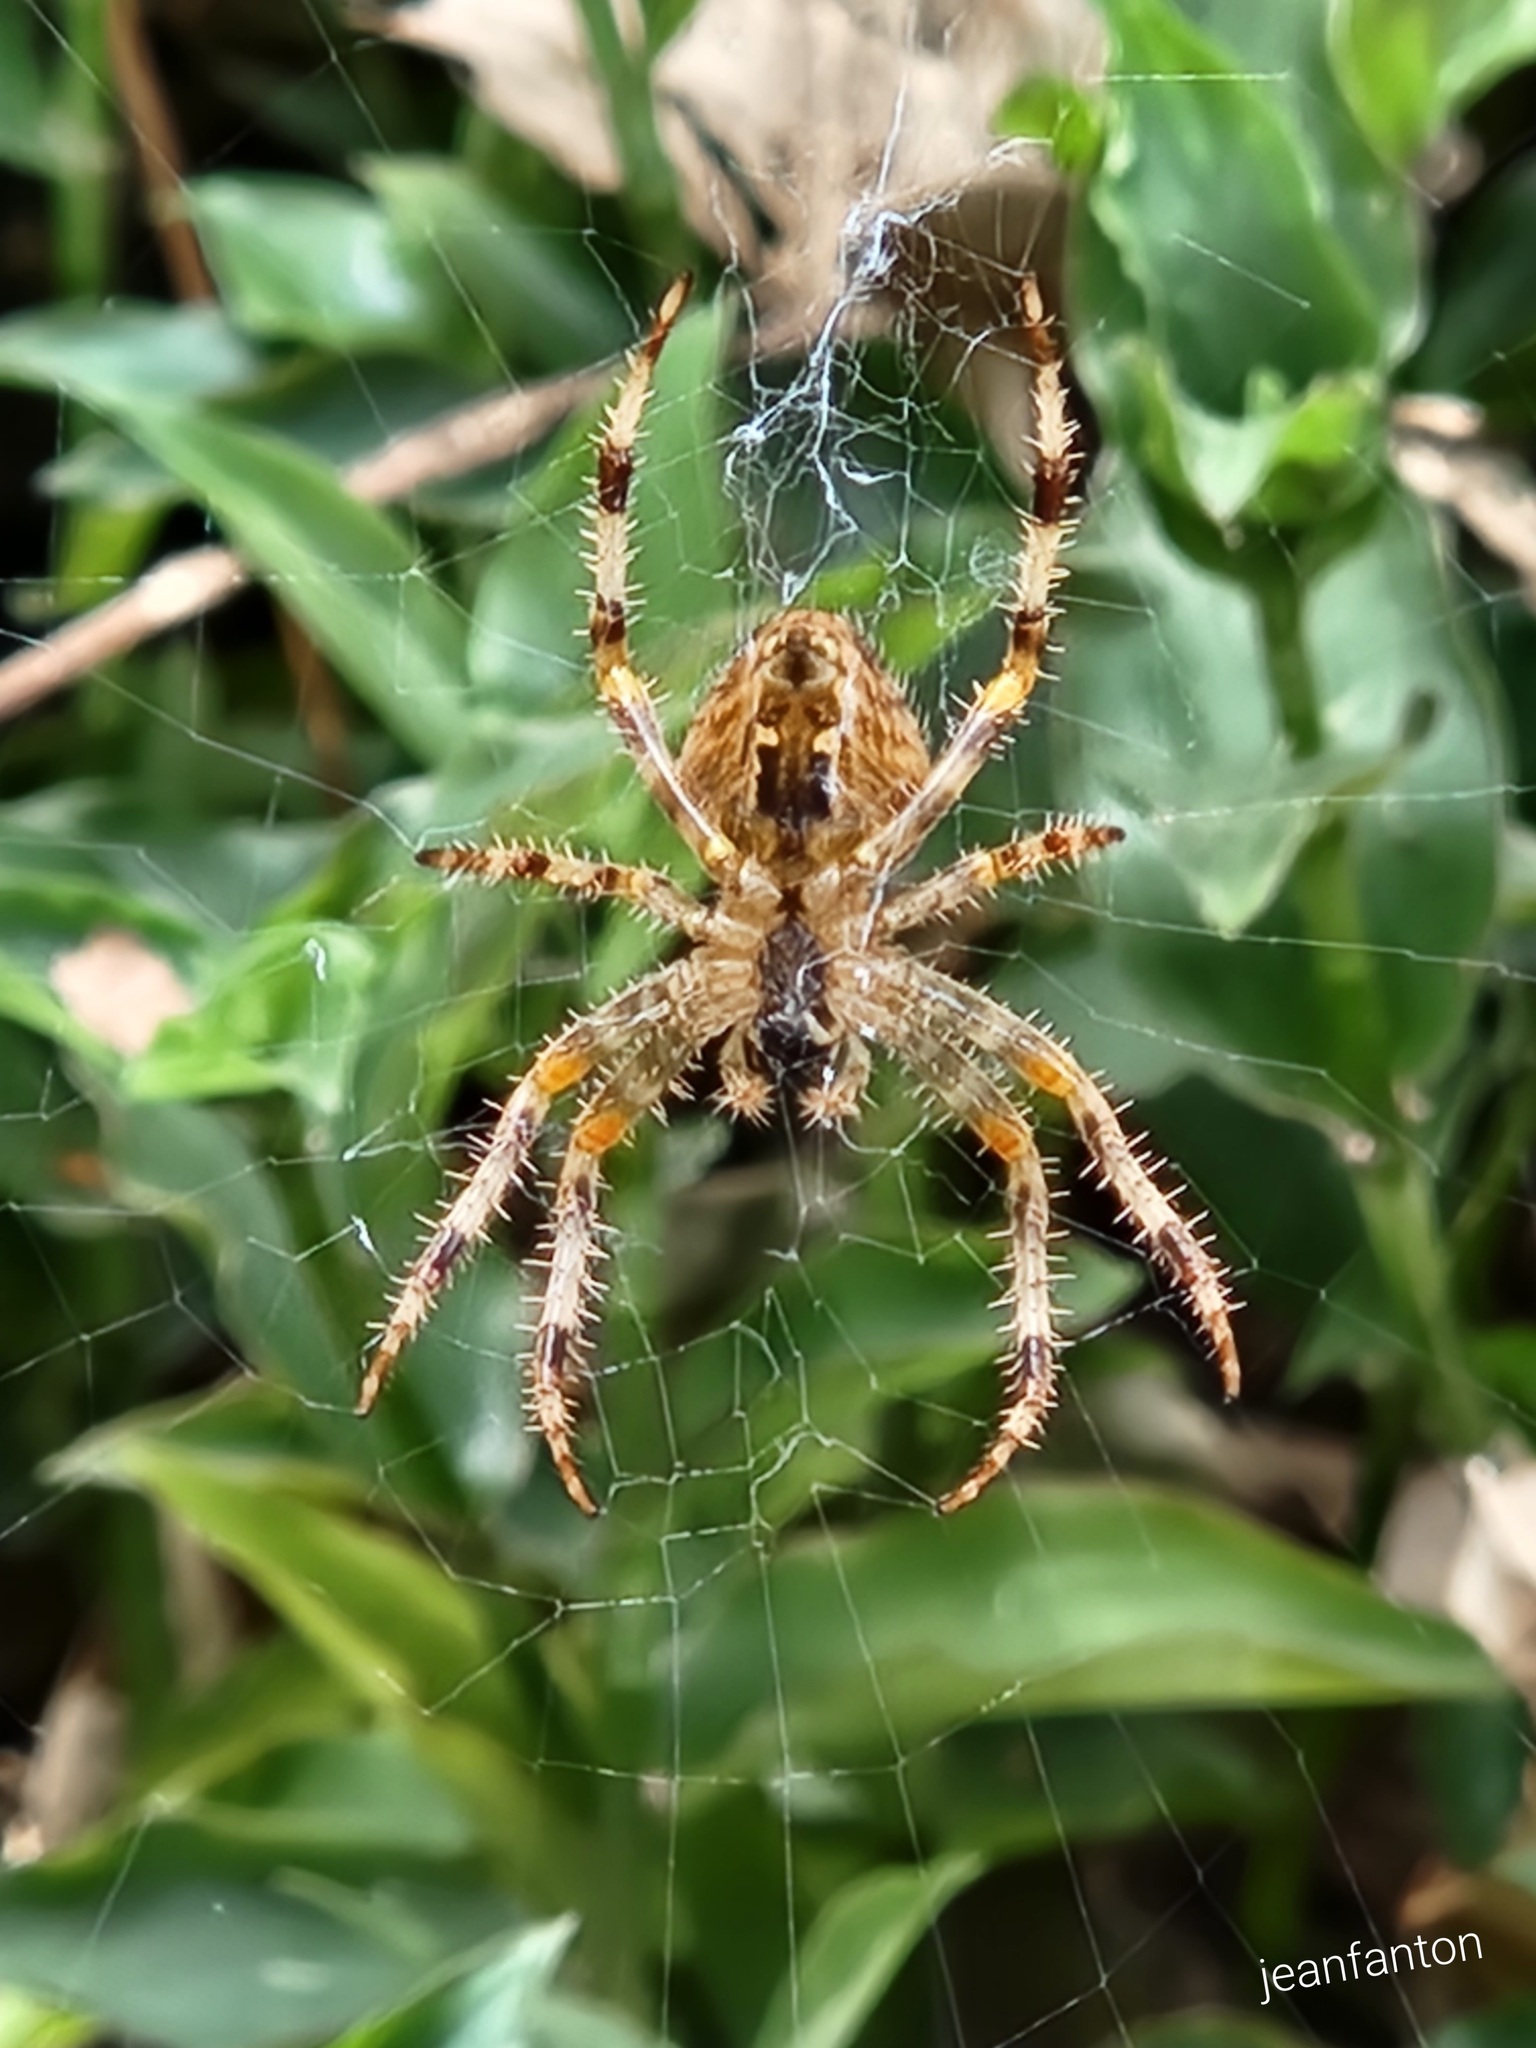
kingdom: Animalia
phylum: Arthropoda
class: Arachnida
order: Araneae
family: Araneidae
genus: Araneus
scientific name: Araneus pallidus
